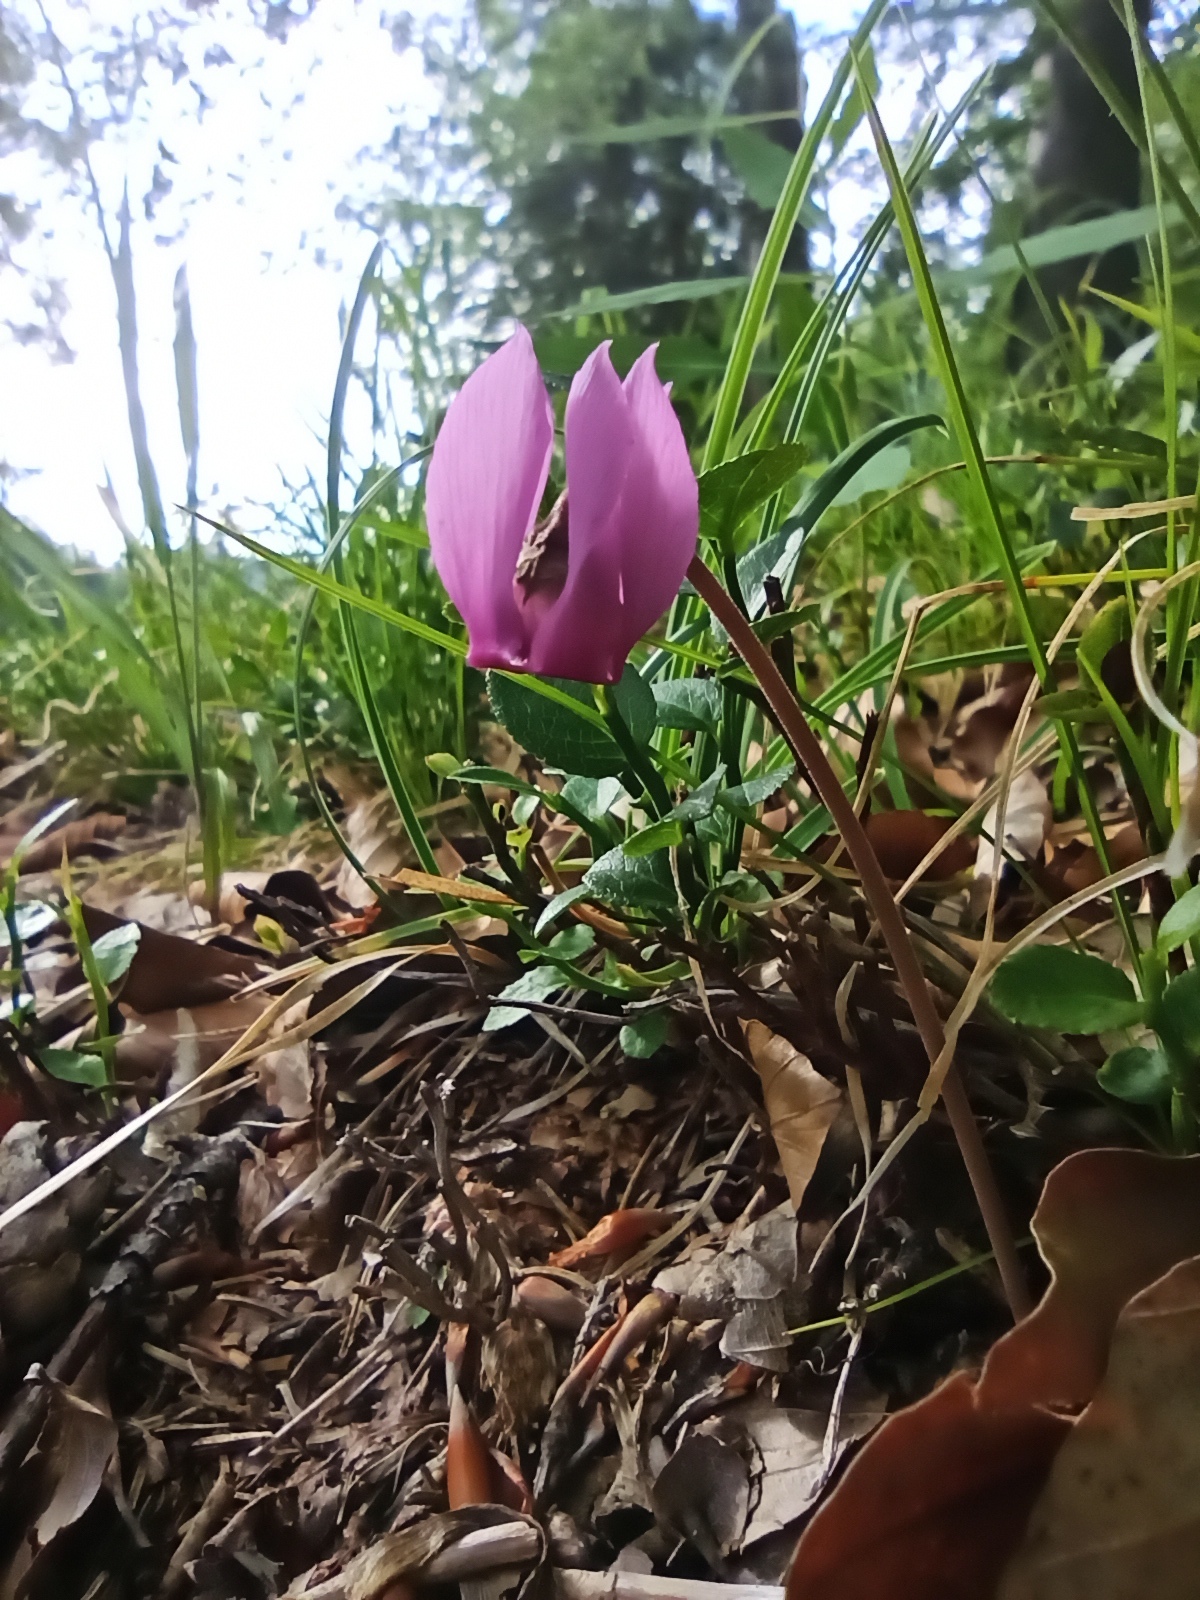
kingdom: Plantae
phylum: Tracheophyta
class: Magnoliopsida
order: Ericales
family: Primulaceae
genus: Cyclamen
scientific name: Cyclamen purpurascens
